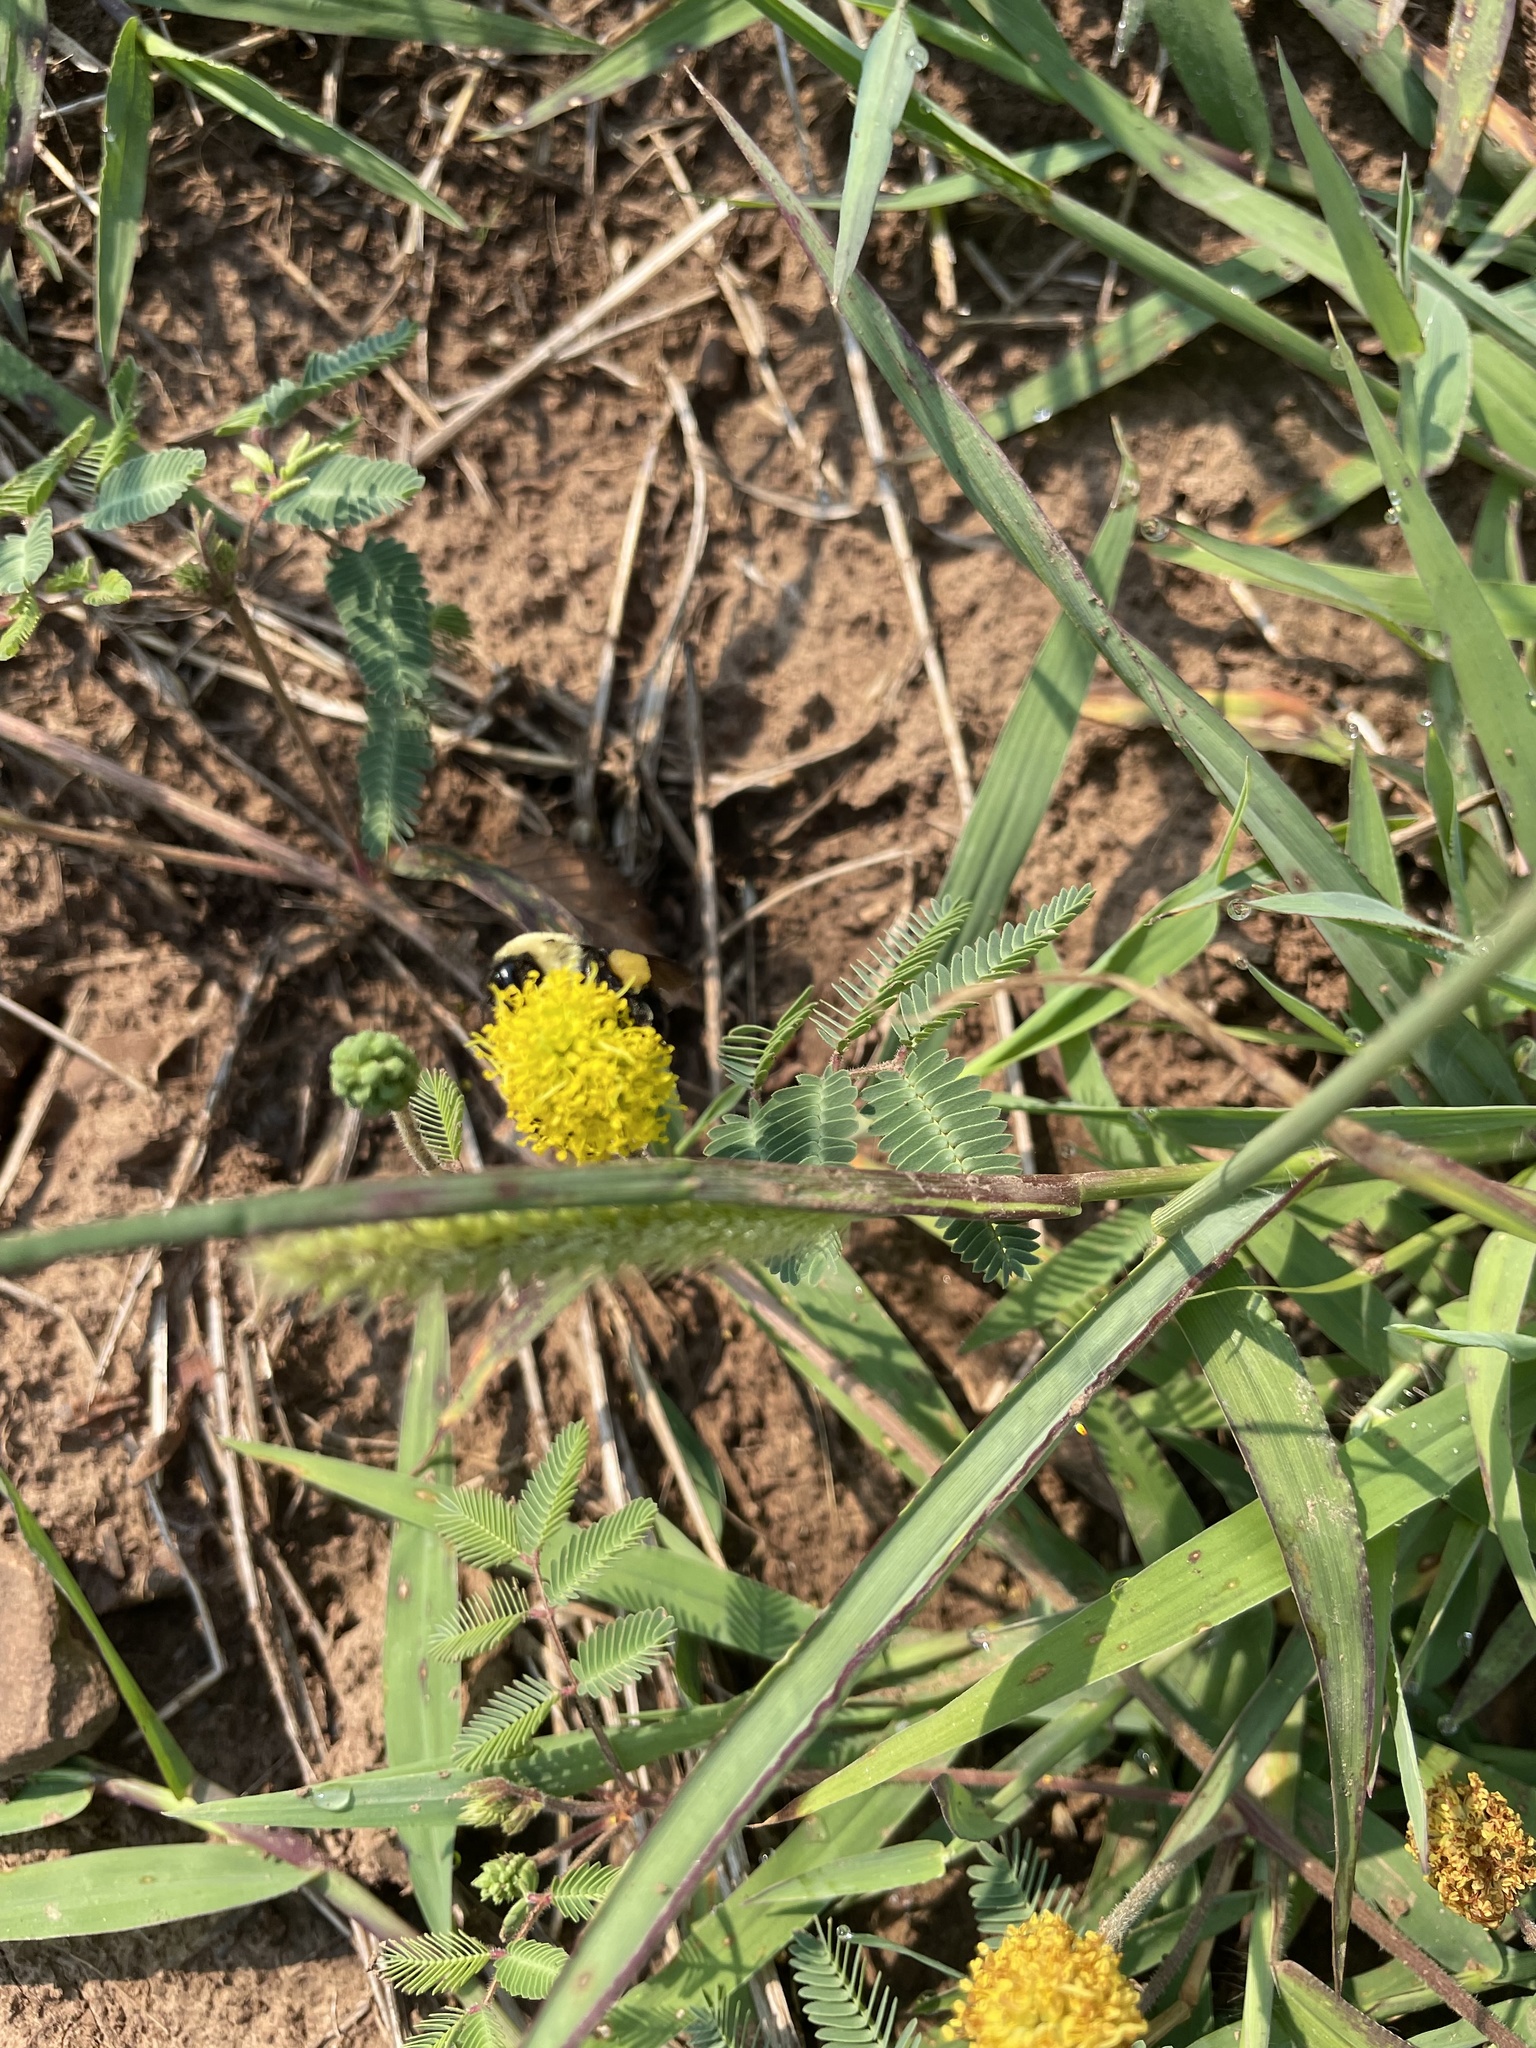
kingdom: Animalia
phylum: Arthropoda
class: Insecta
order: Hymenoptera
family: Apidae
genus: Bombus
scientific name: Bombus griseocollis
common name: Brown-belted bumble bee
